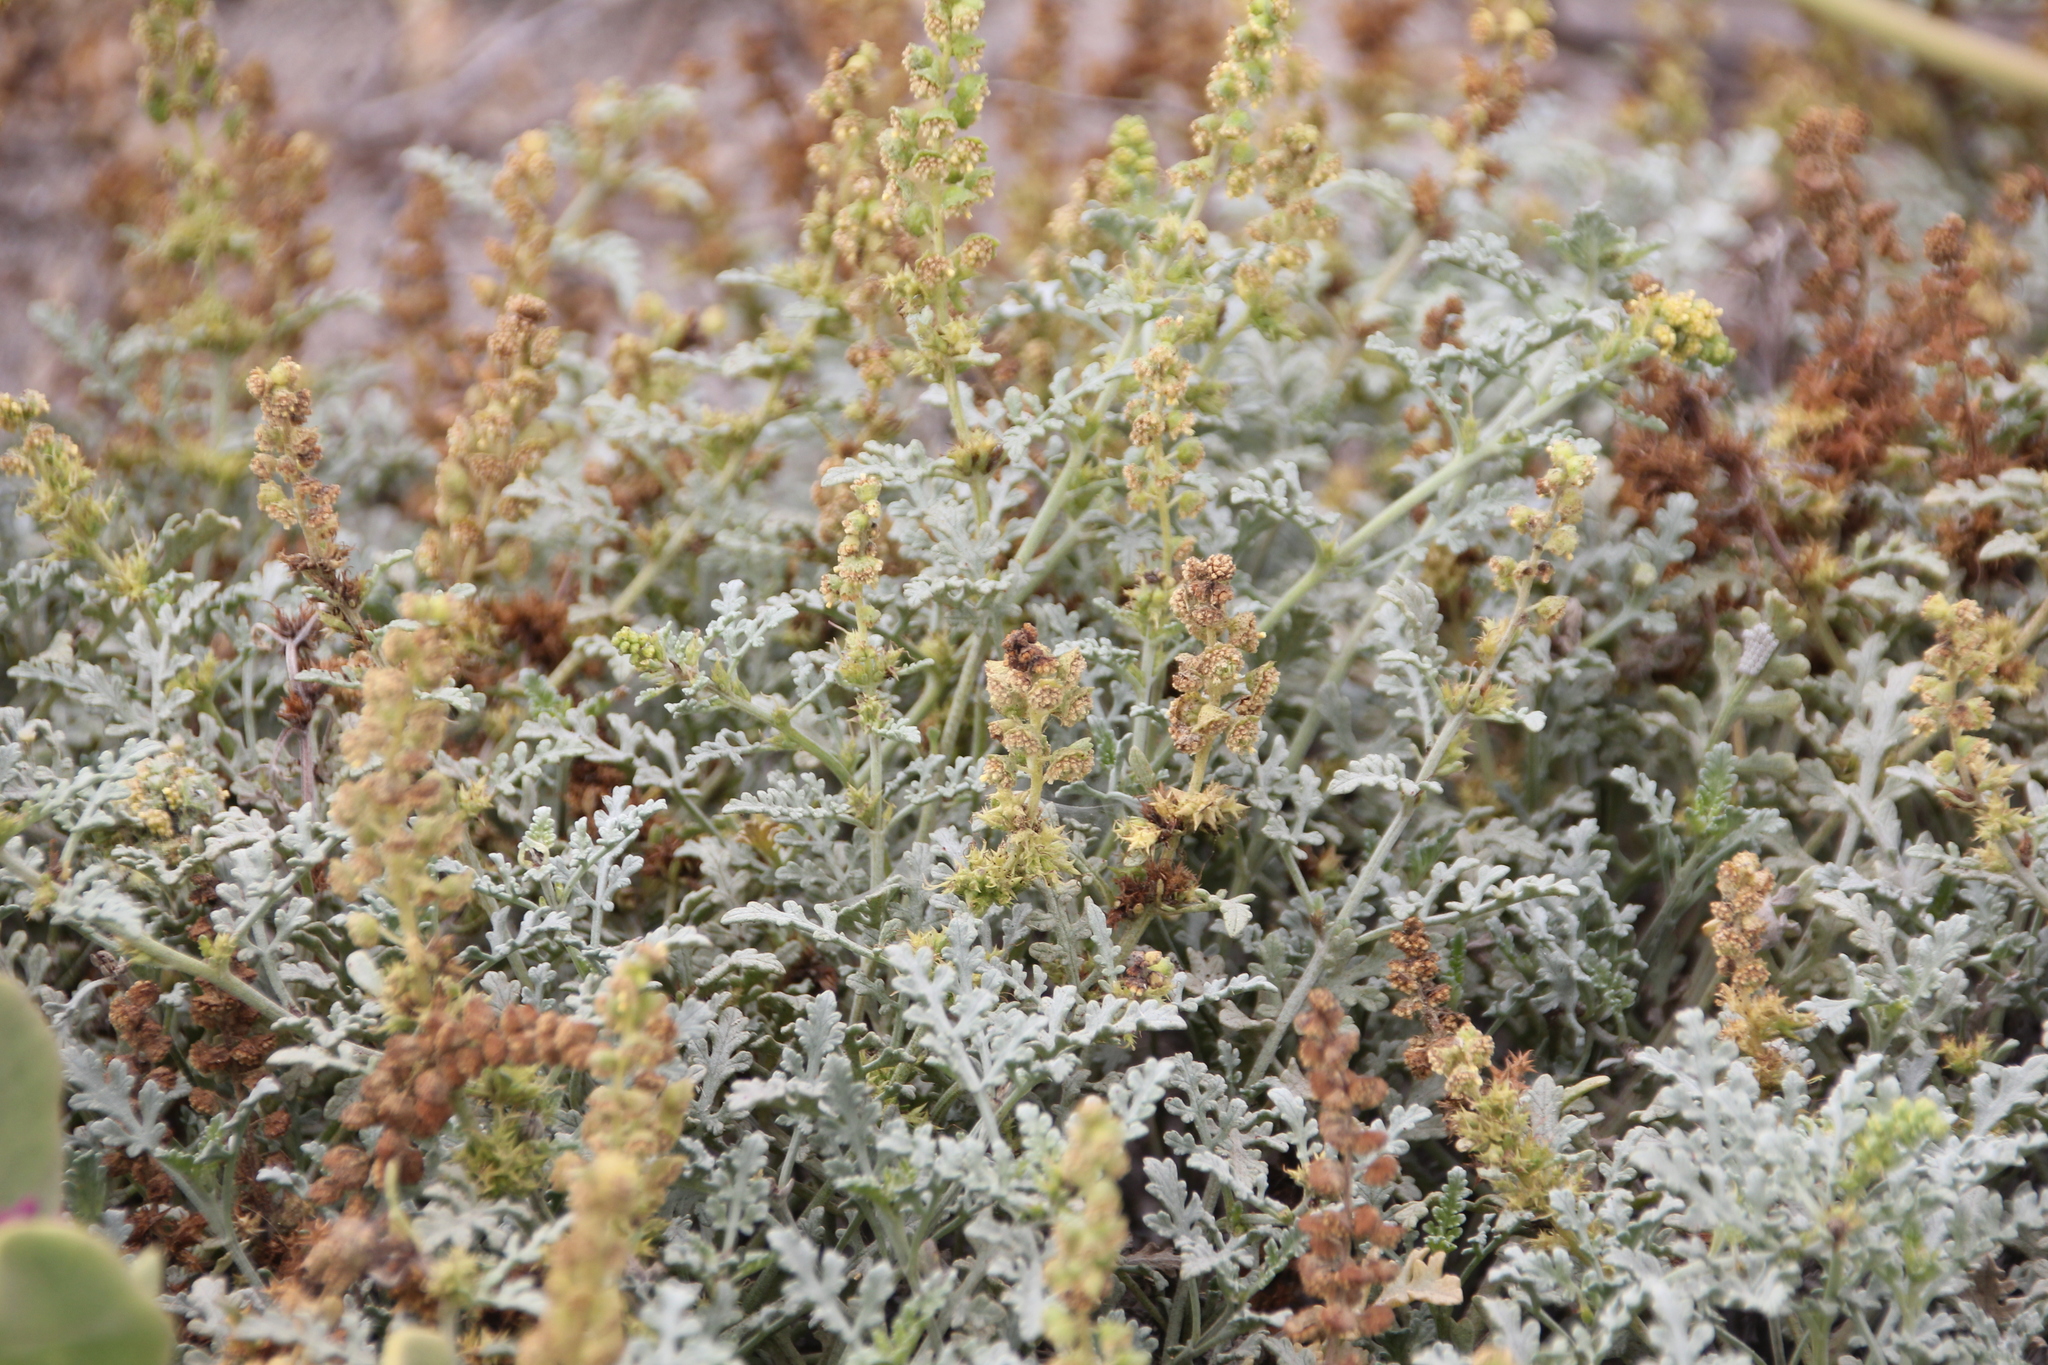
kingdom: Plantae
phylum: Tracheophyta
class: Magnoliopsida
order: Asterales
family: Asteraceae
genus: Ambrosia
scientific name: Ambrosia chamissonis
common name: Beachbur
